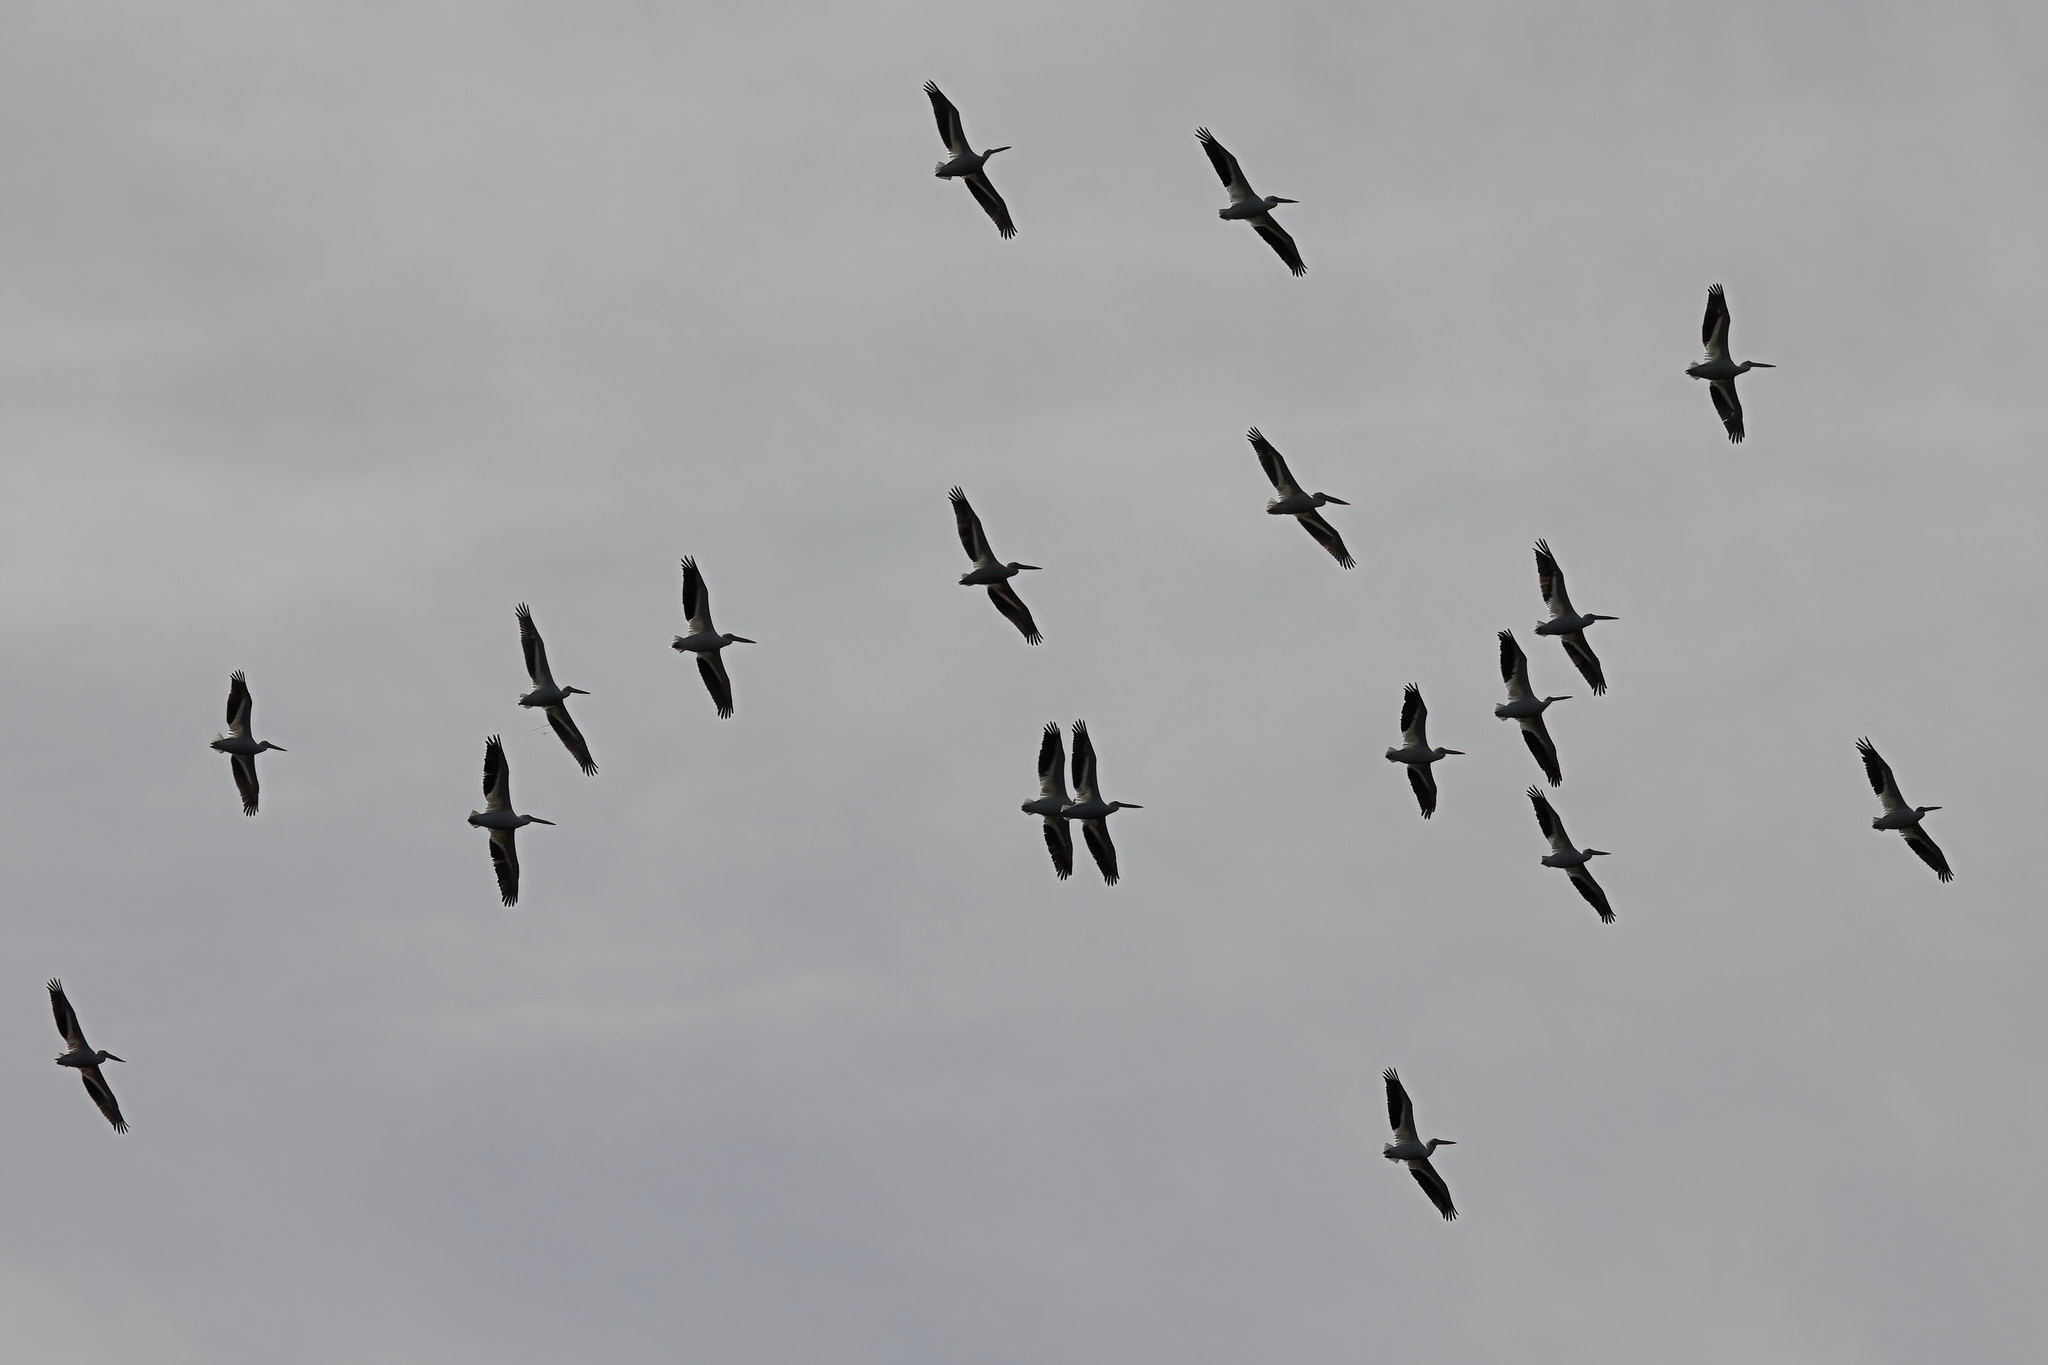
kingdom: Animalia
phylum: Chordata
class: Aves
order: Pelecaniformes
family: Pelecanidae
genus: Pelecanus
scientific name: Pelecanus erythrorhynchos
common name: American white pelican
